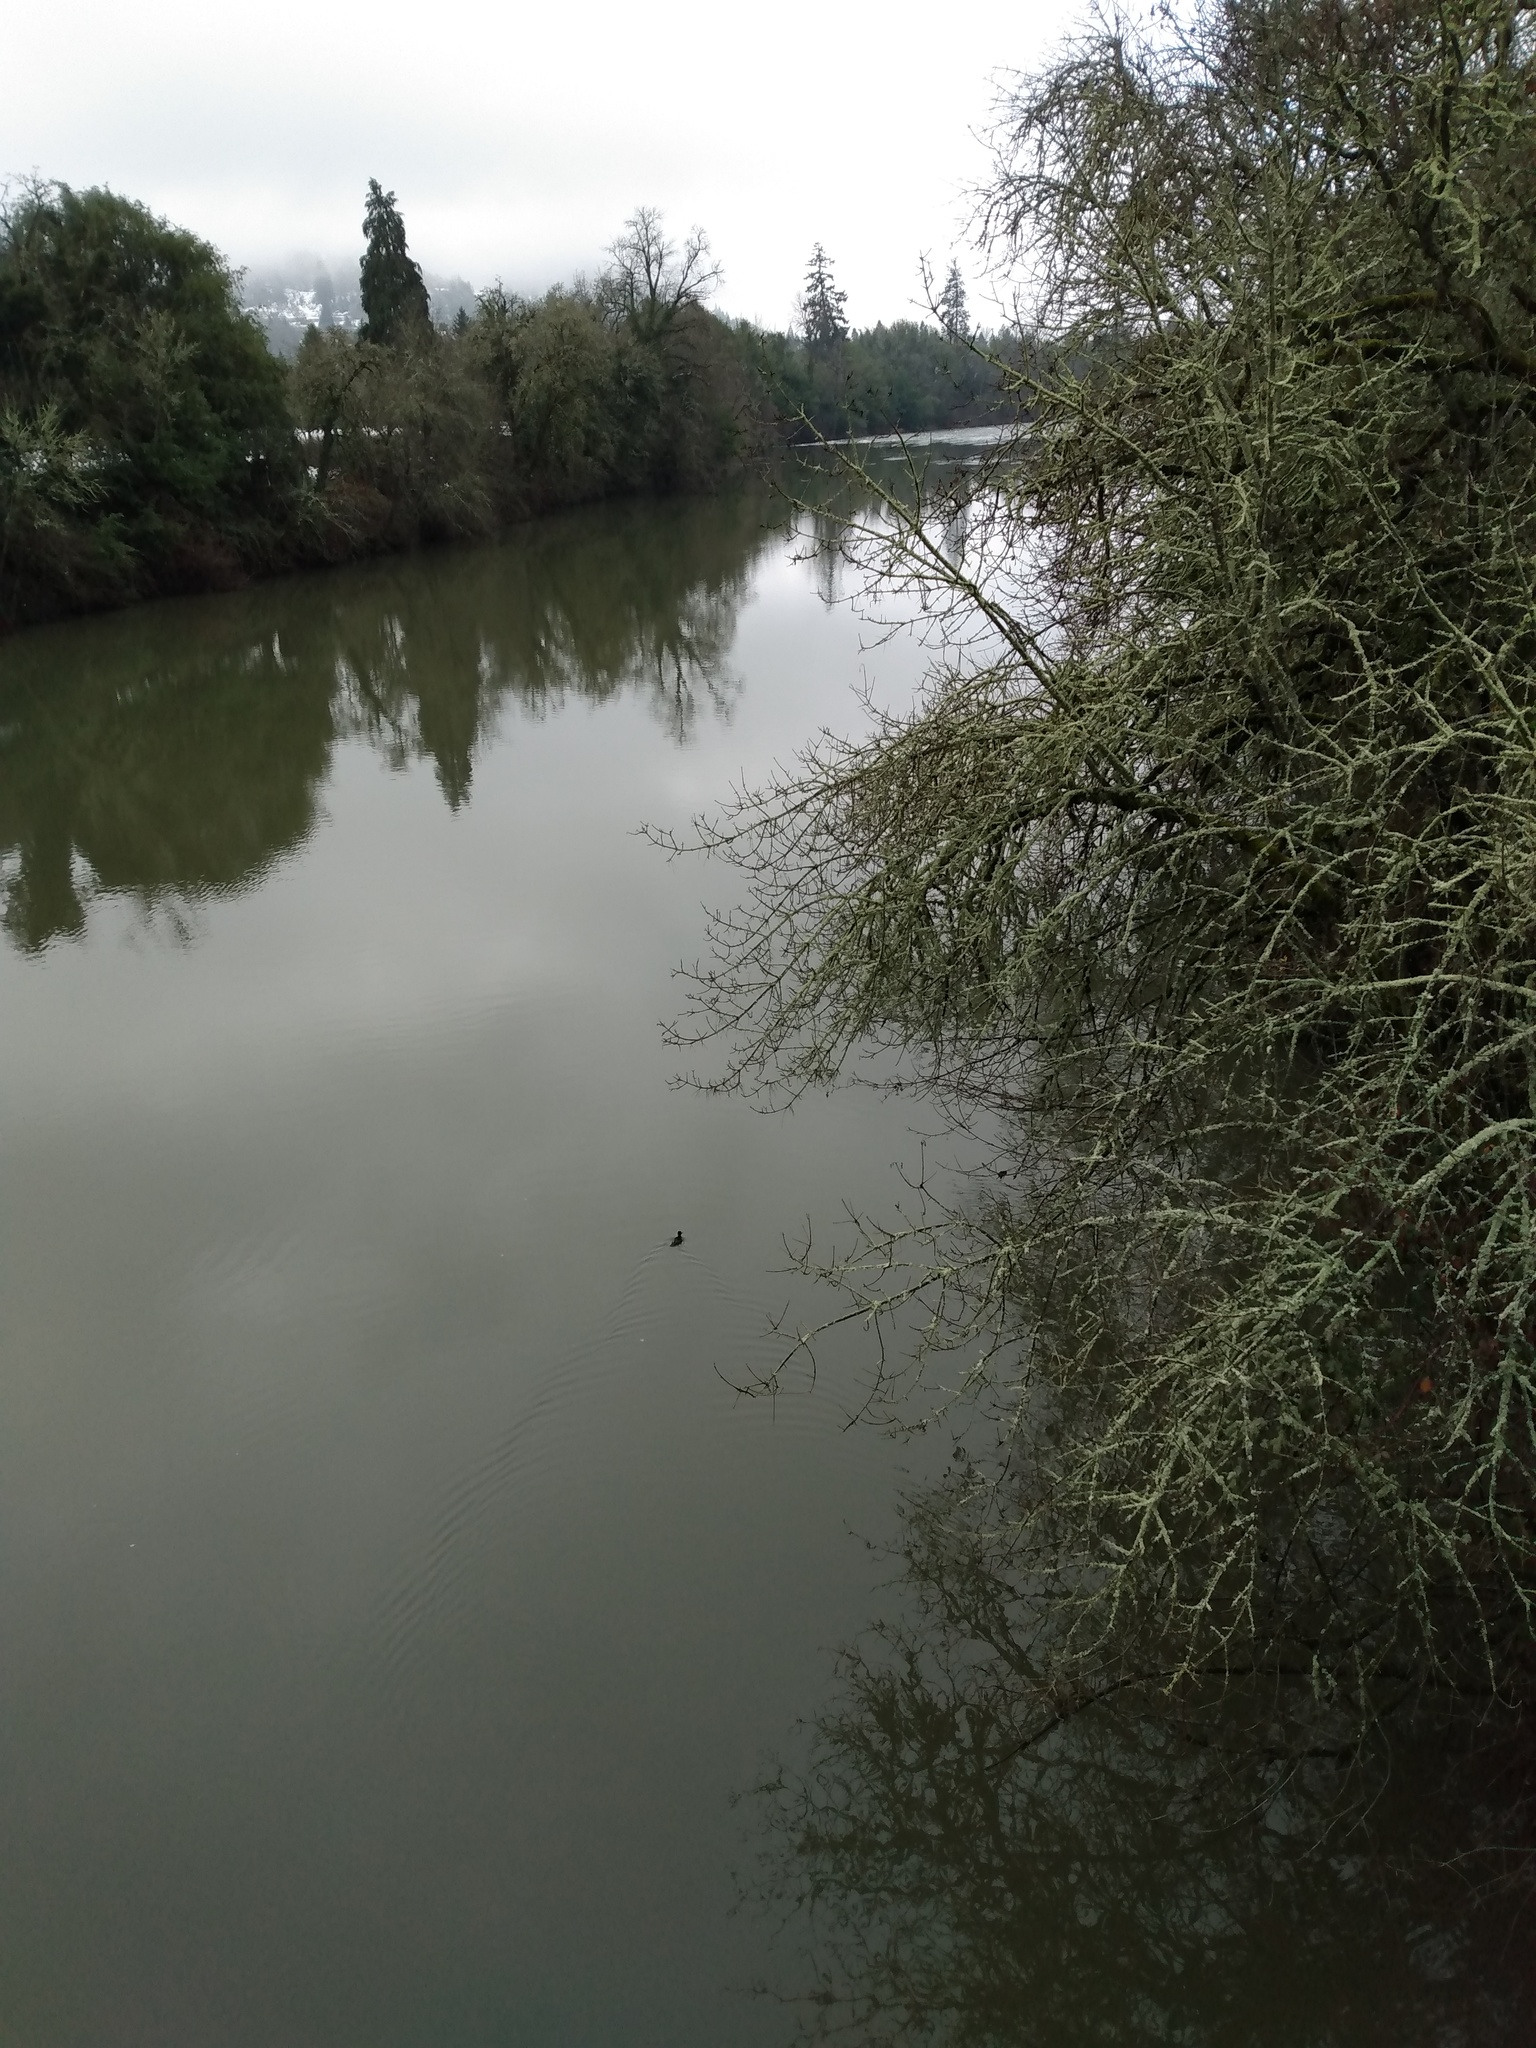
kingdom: Animalia
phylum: Chordata
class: Aves
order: Anseriformes
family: Anatidae
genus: Lophodytes
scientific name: Lophodytes cucullatus
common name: Hooded merganser
